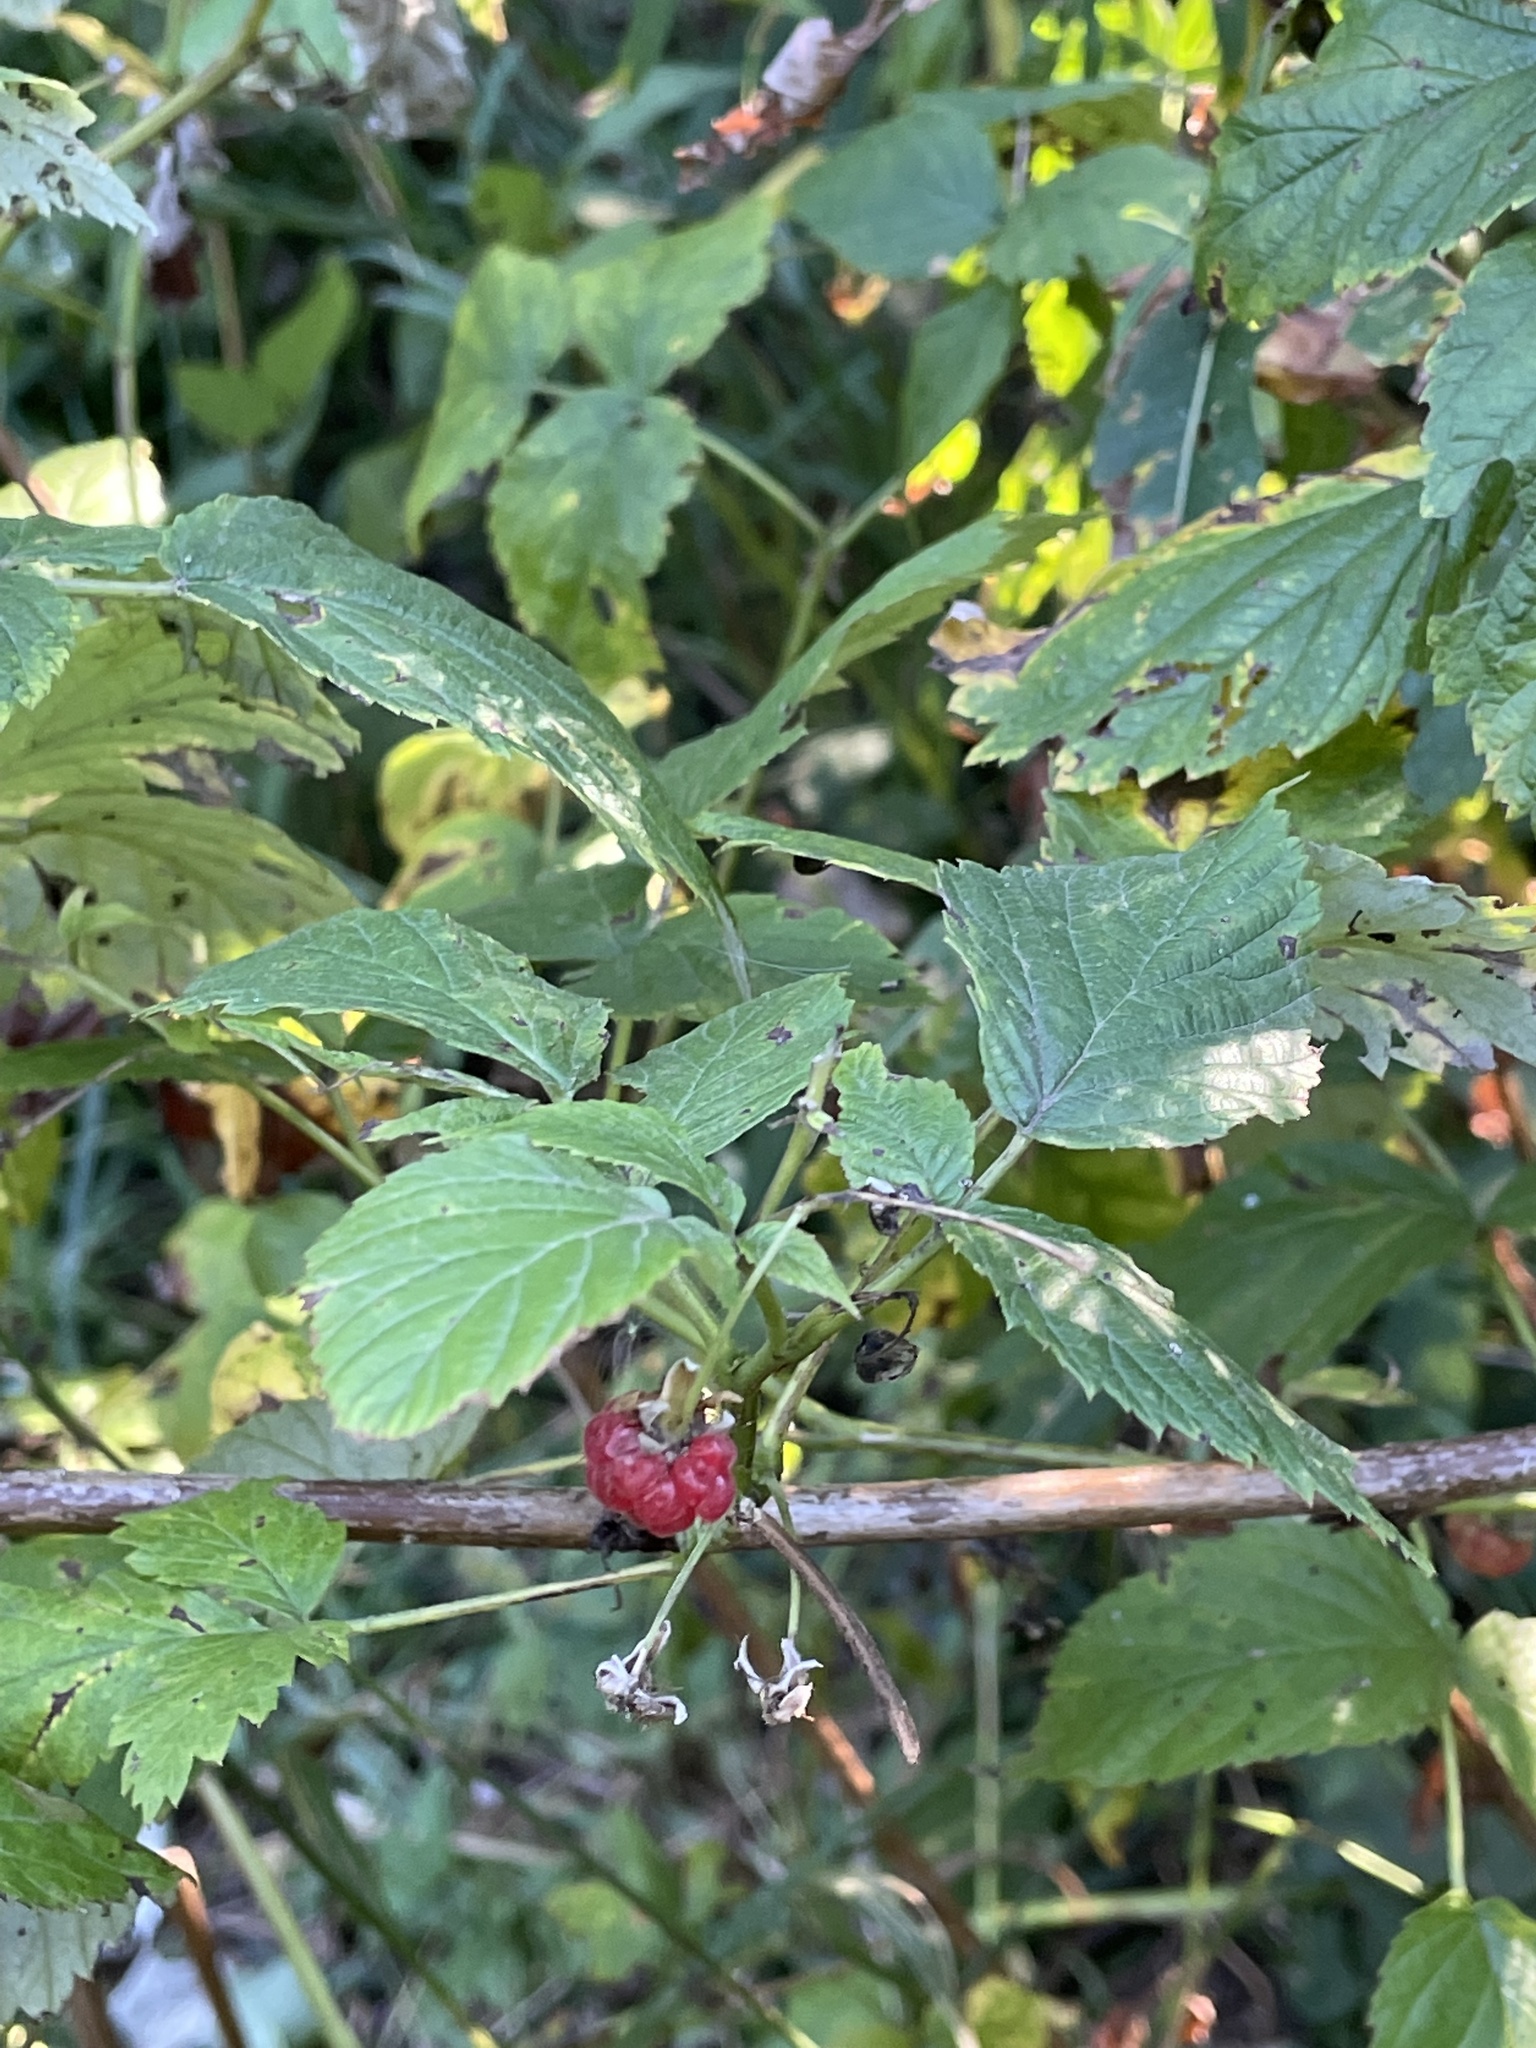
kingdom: Plantae
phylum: Tracheophyta
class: Magnoliopsida
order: Rosales
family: Rosaceae
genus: Rubus
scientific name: Rubus idaeus
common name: Raspberry
